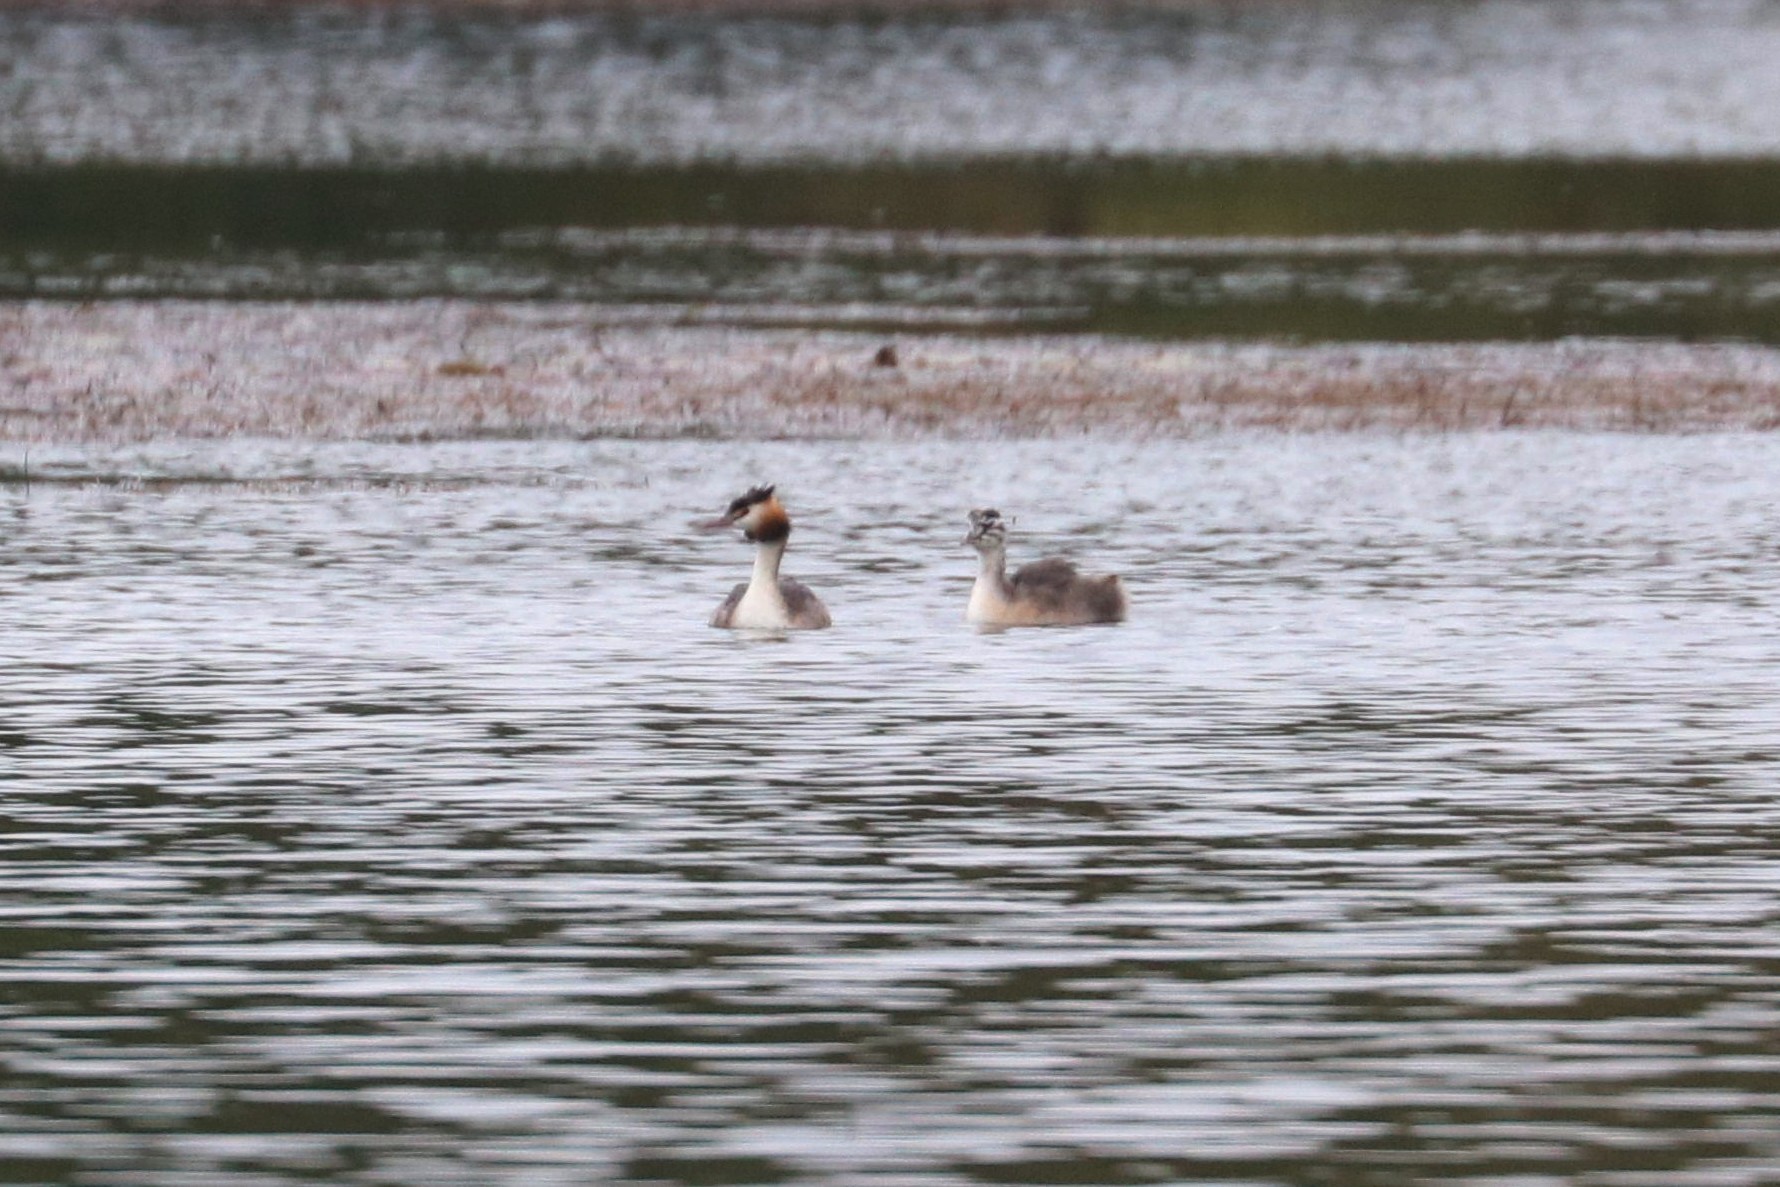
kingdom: Animalia
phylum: Chordata
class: Aves
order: Podicipediformes
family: Podicipedidae
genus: Podiceps
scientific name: Podiceps cristatus
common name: Great crested grebe
